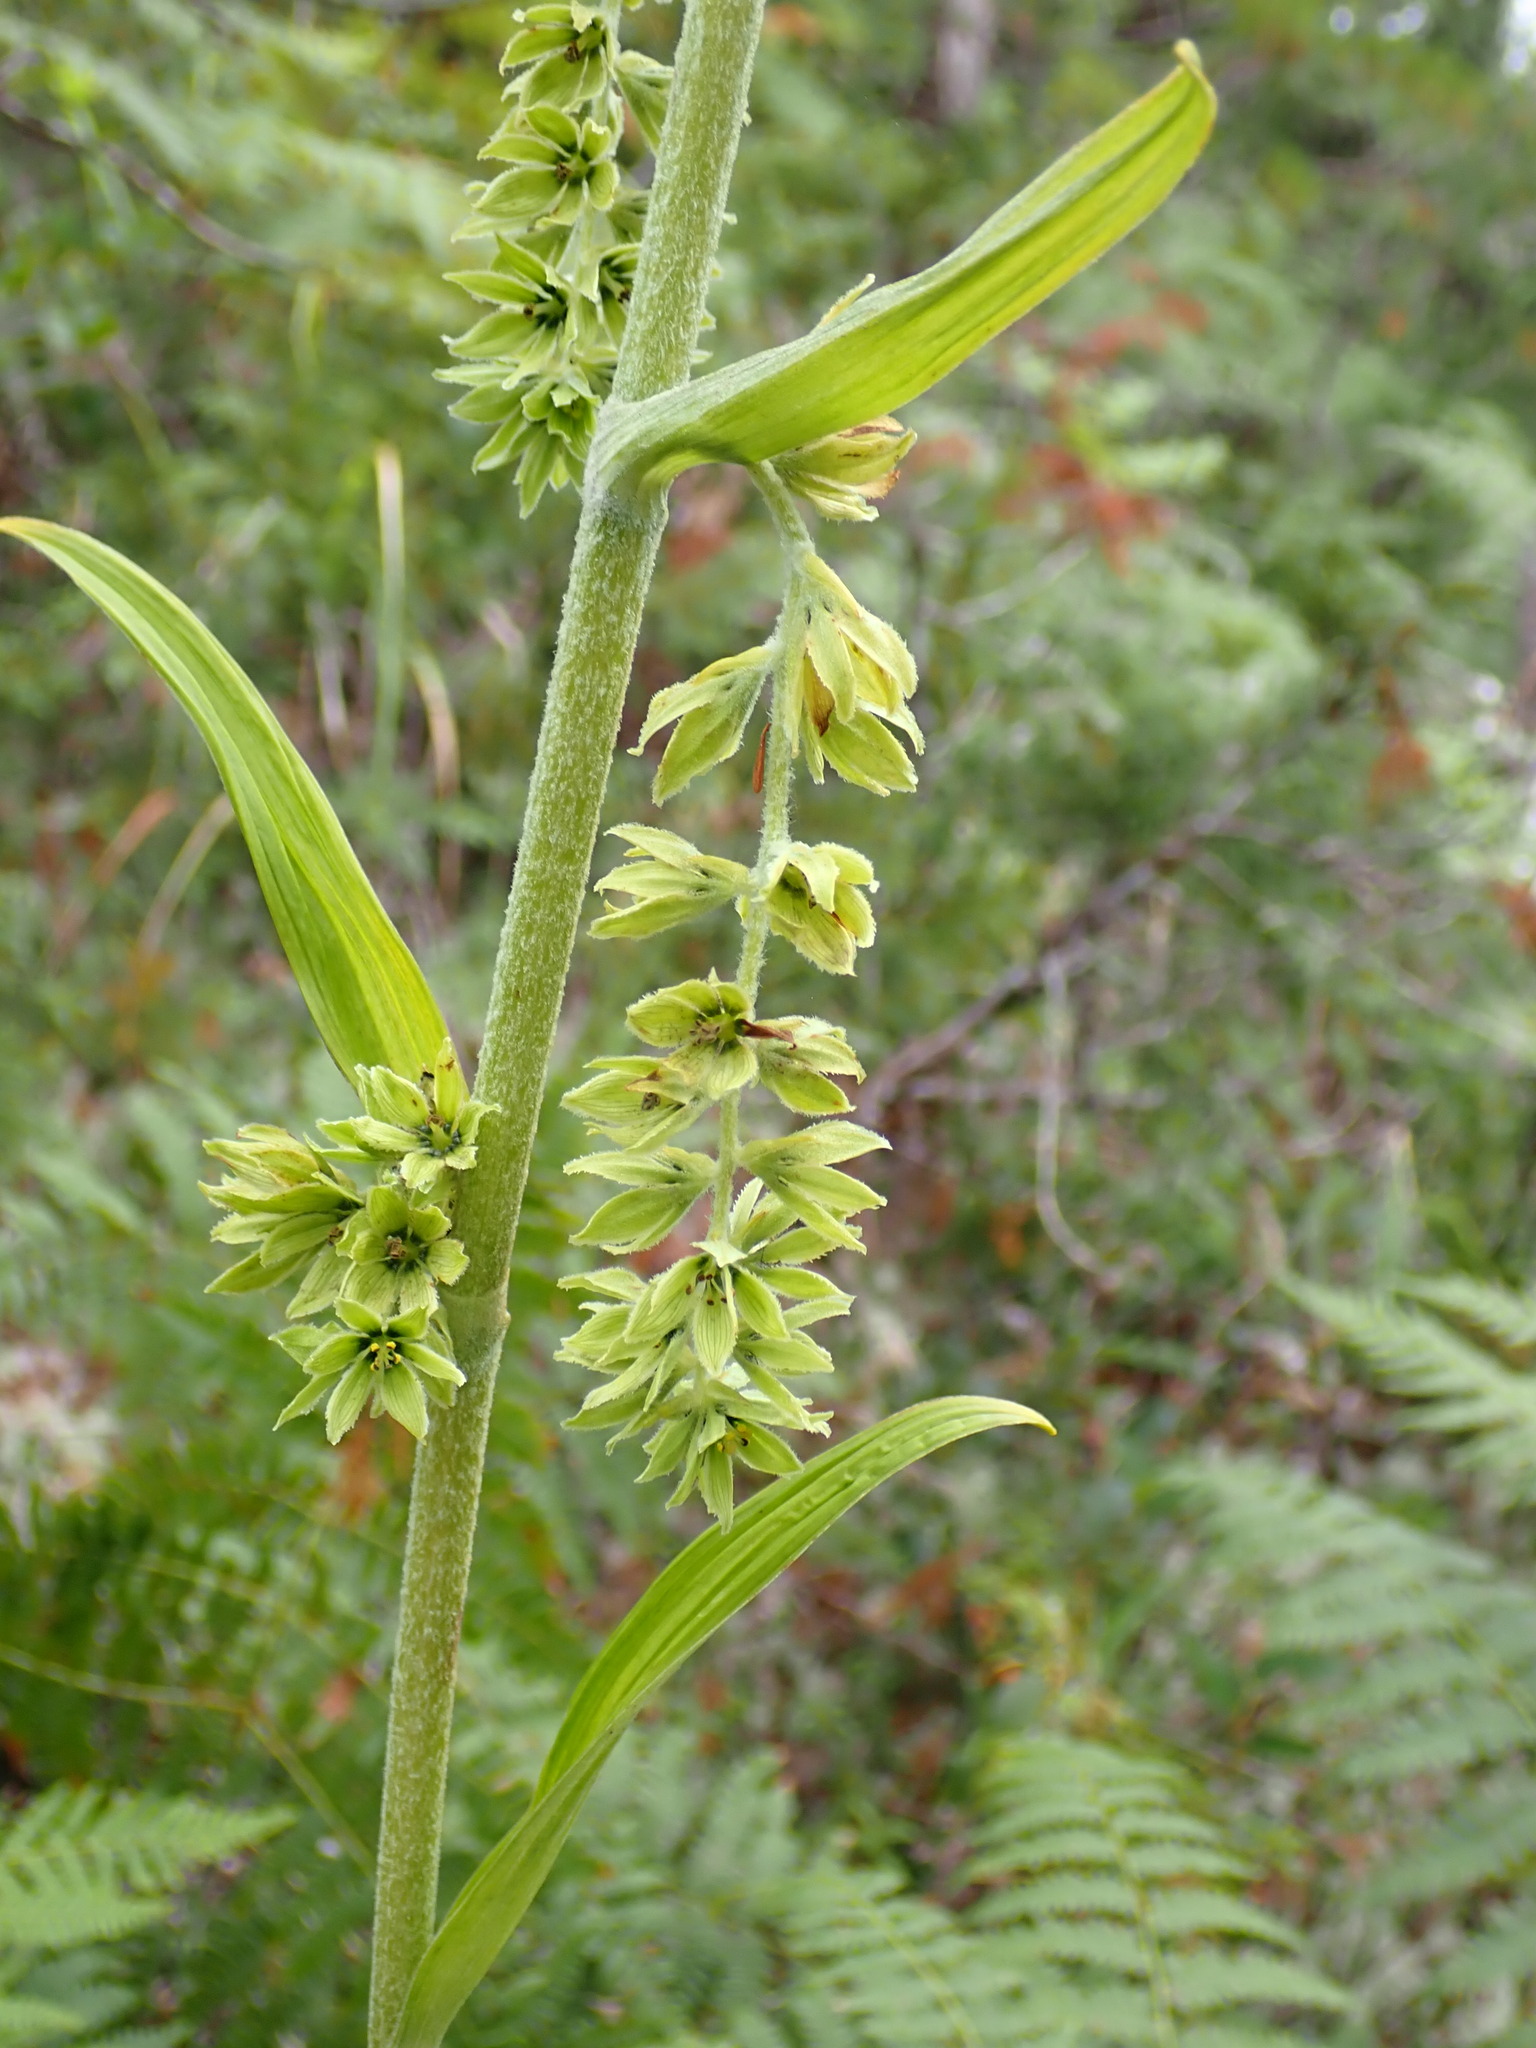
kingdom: Plantae
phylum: Tracheophyta
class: Liliopsida
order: Liliales
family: Melanthiaceae
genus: Veratrum
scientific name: Veratrum viride
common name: American false hellebore
